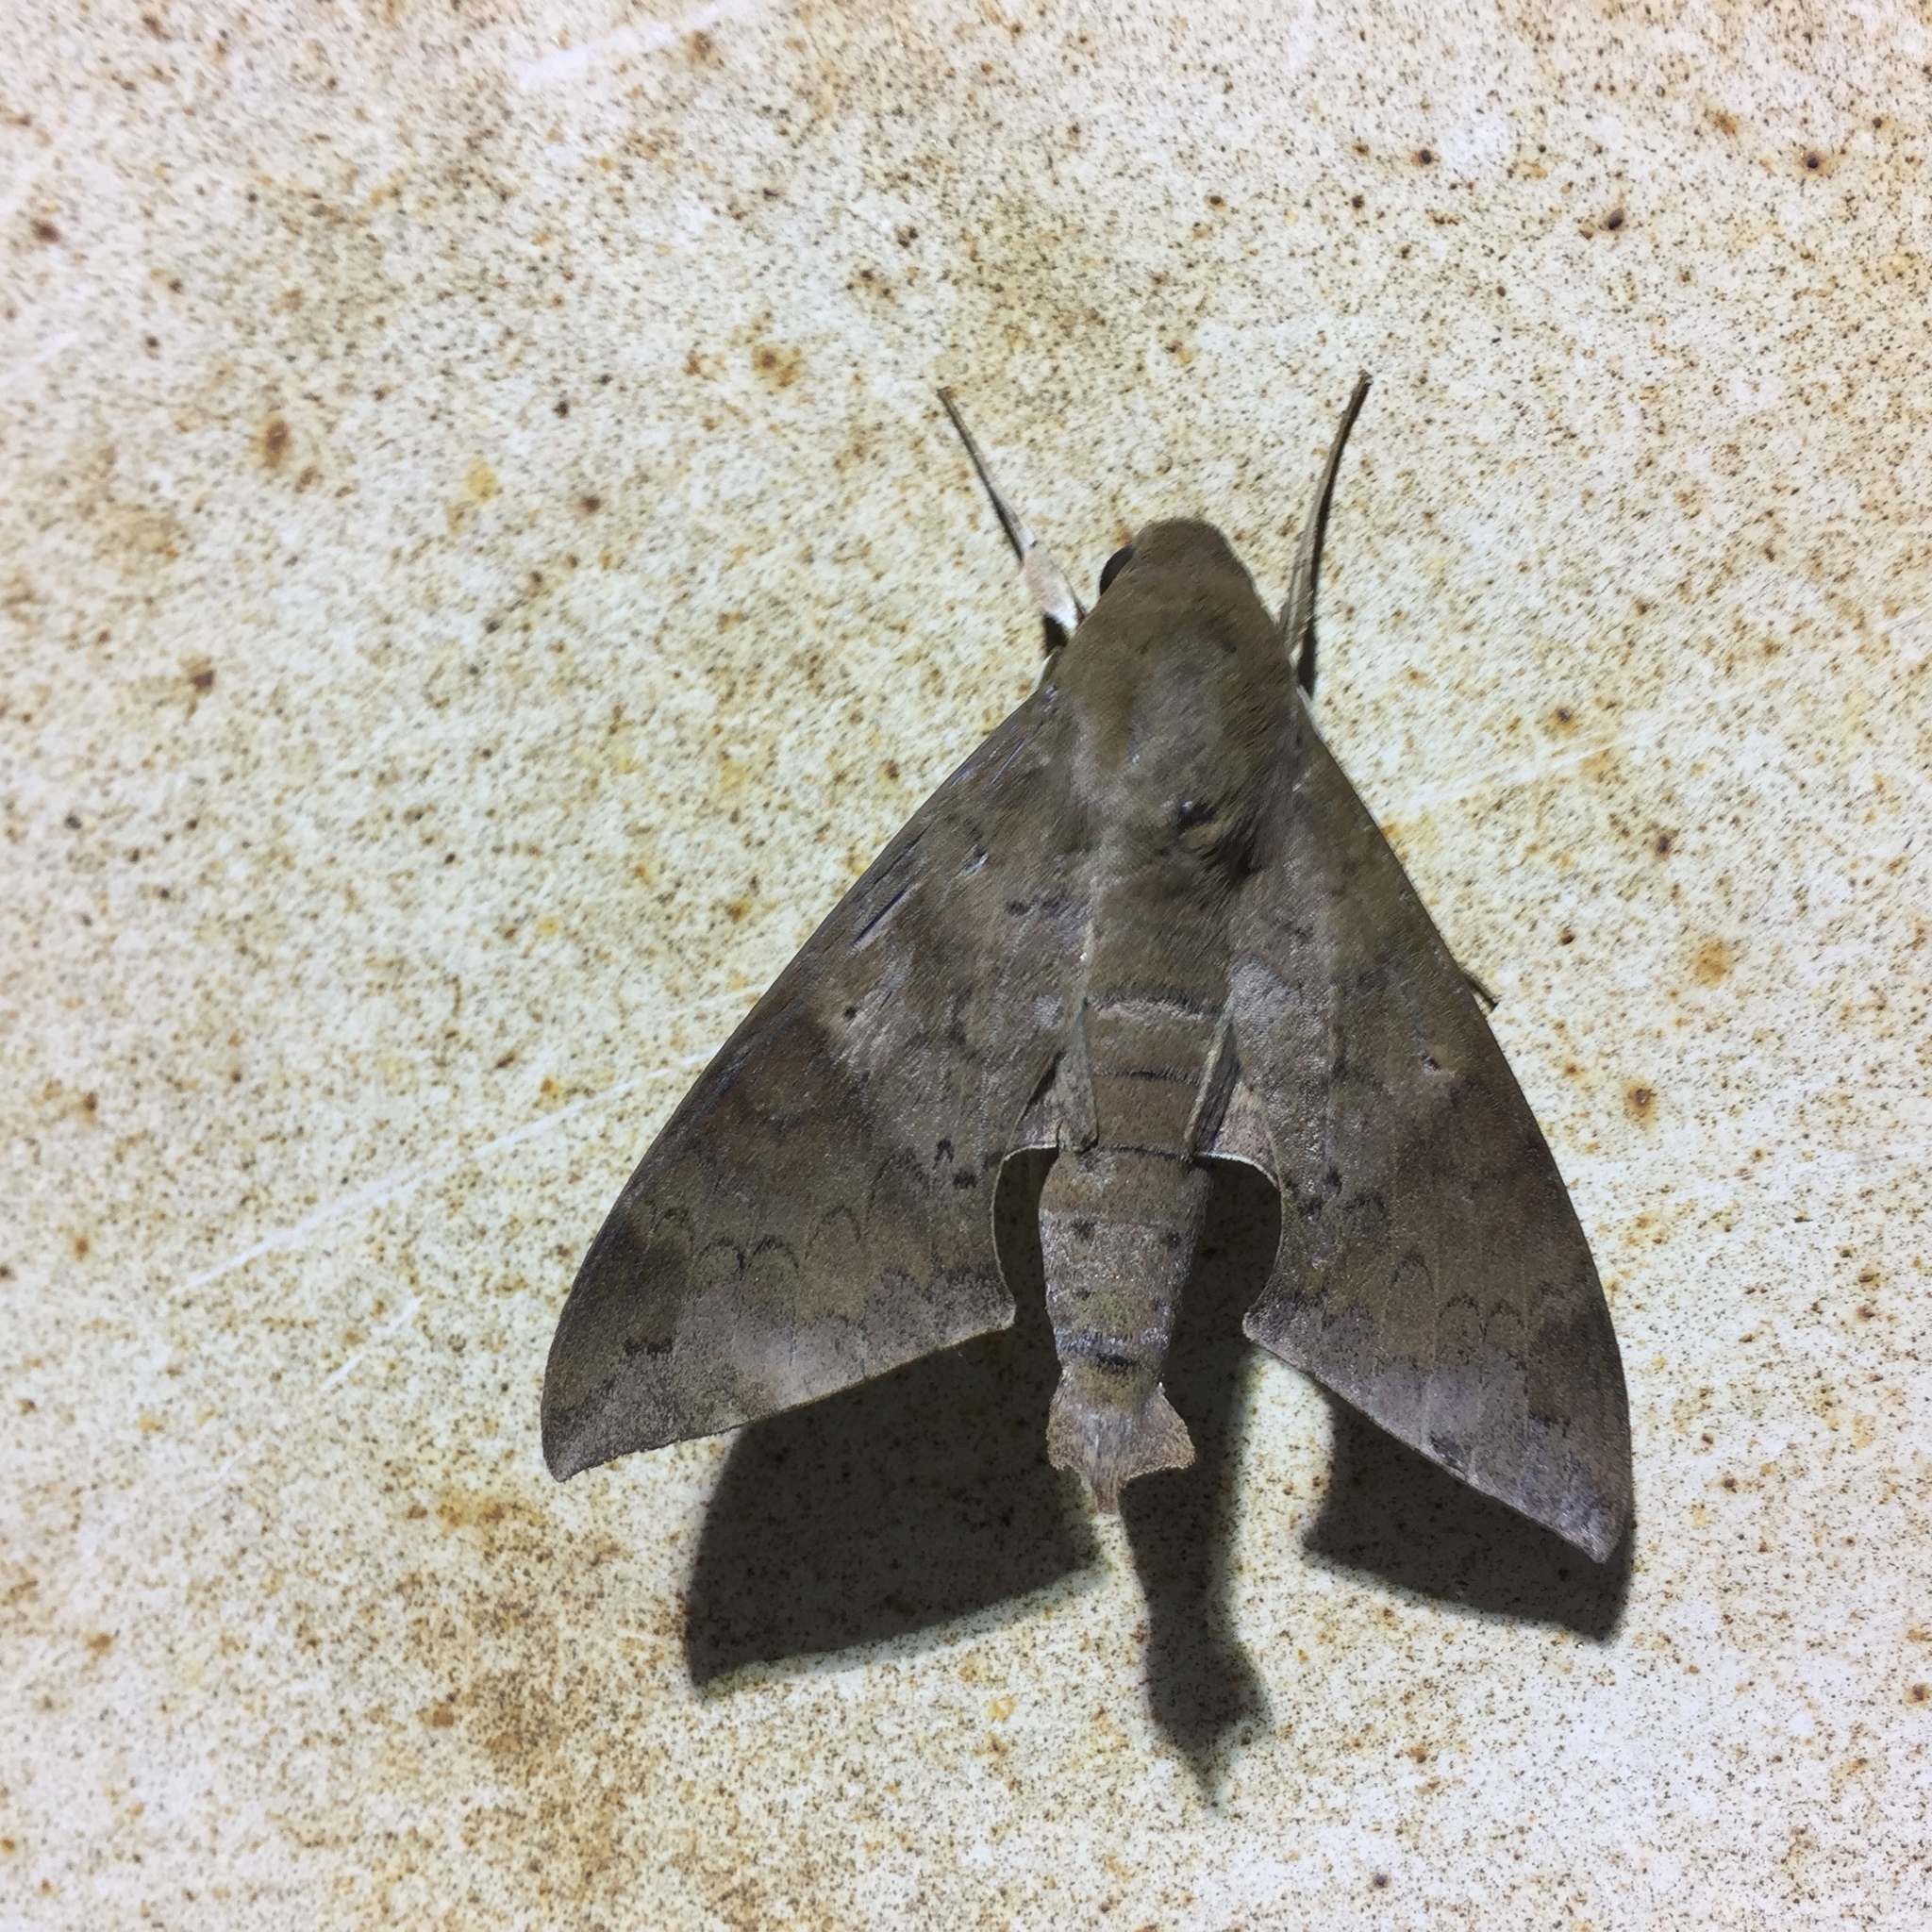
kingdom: Animalia
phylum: Arthropoda
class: Insecta
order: Lepidoptera
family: Sphingidae
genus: Pachylioides
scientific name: Pachylioides resumens
